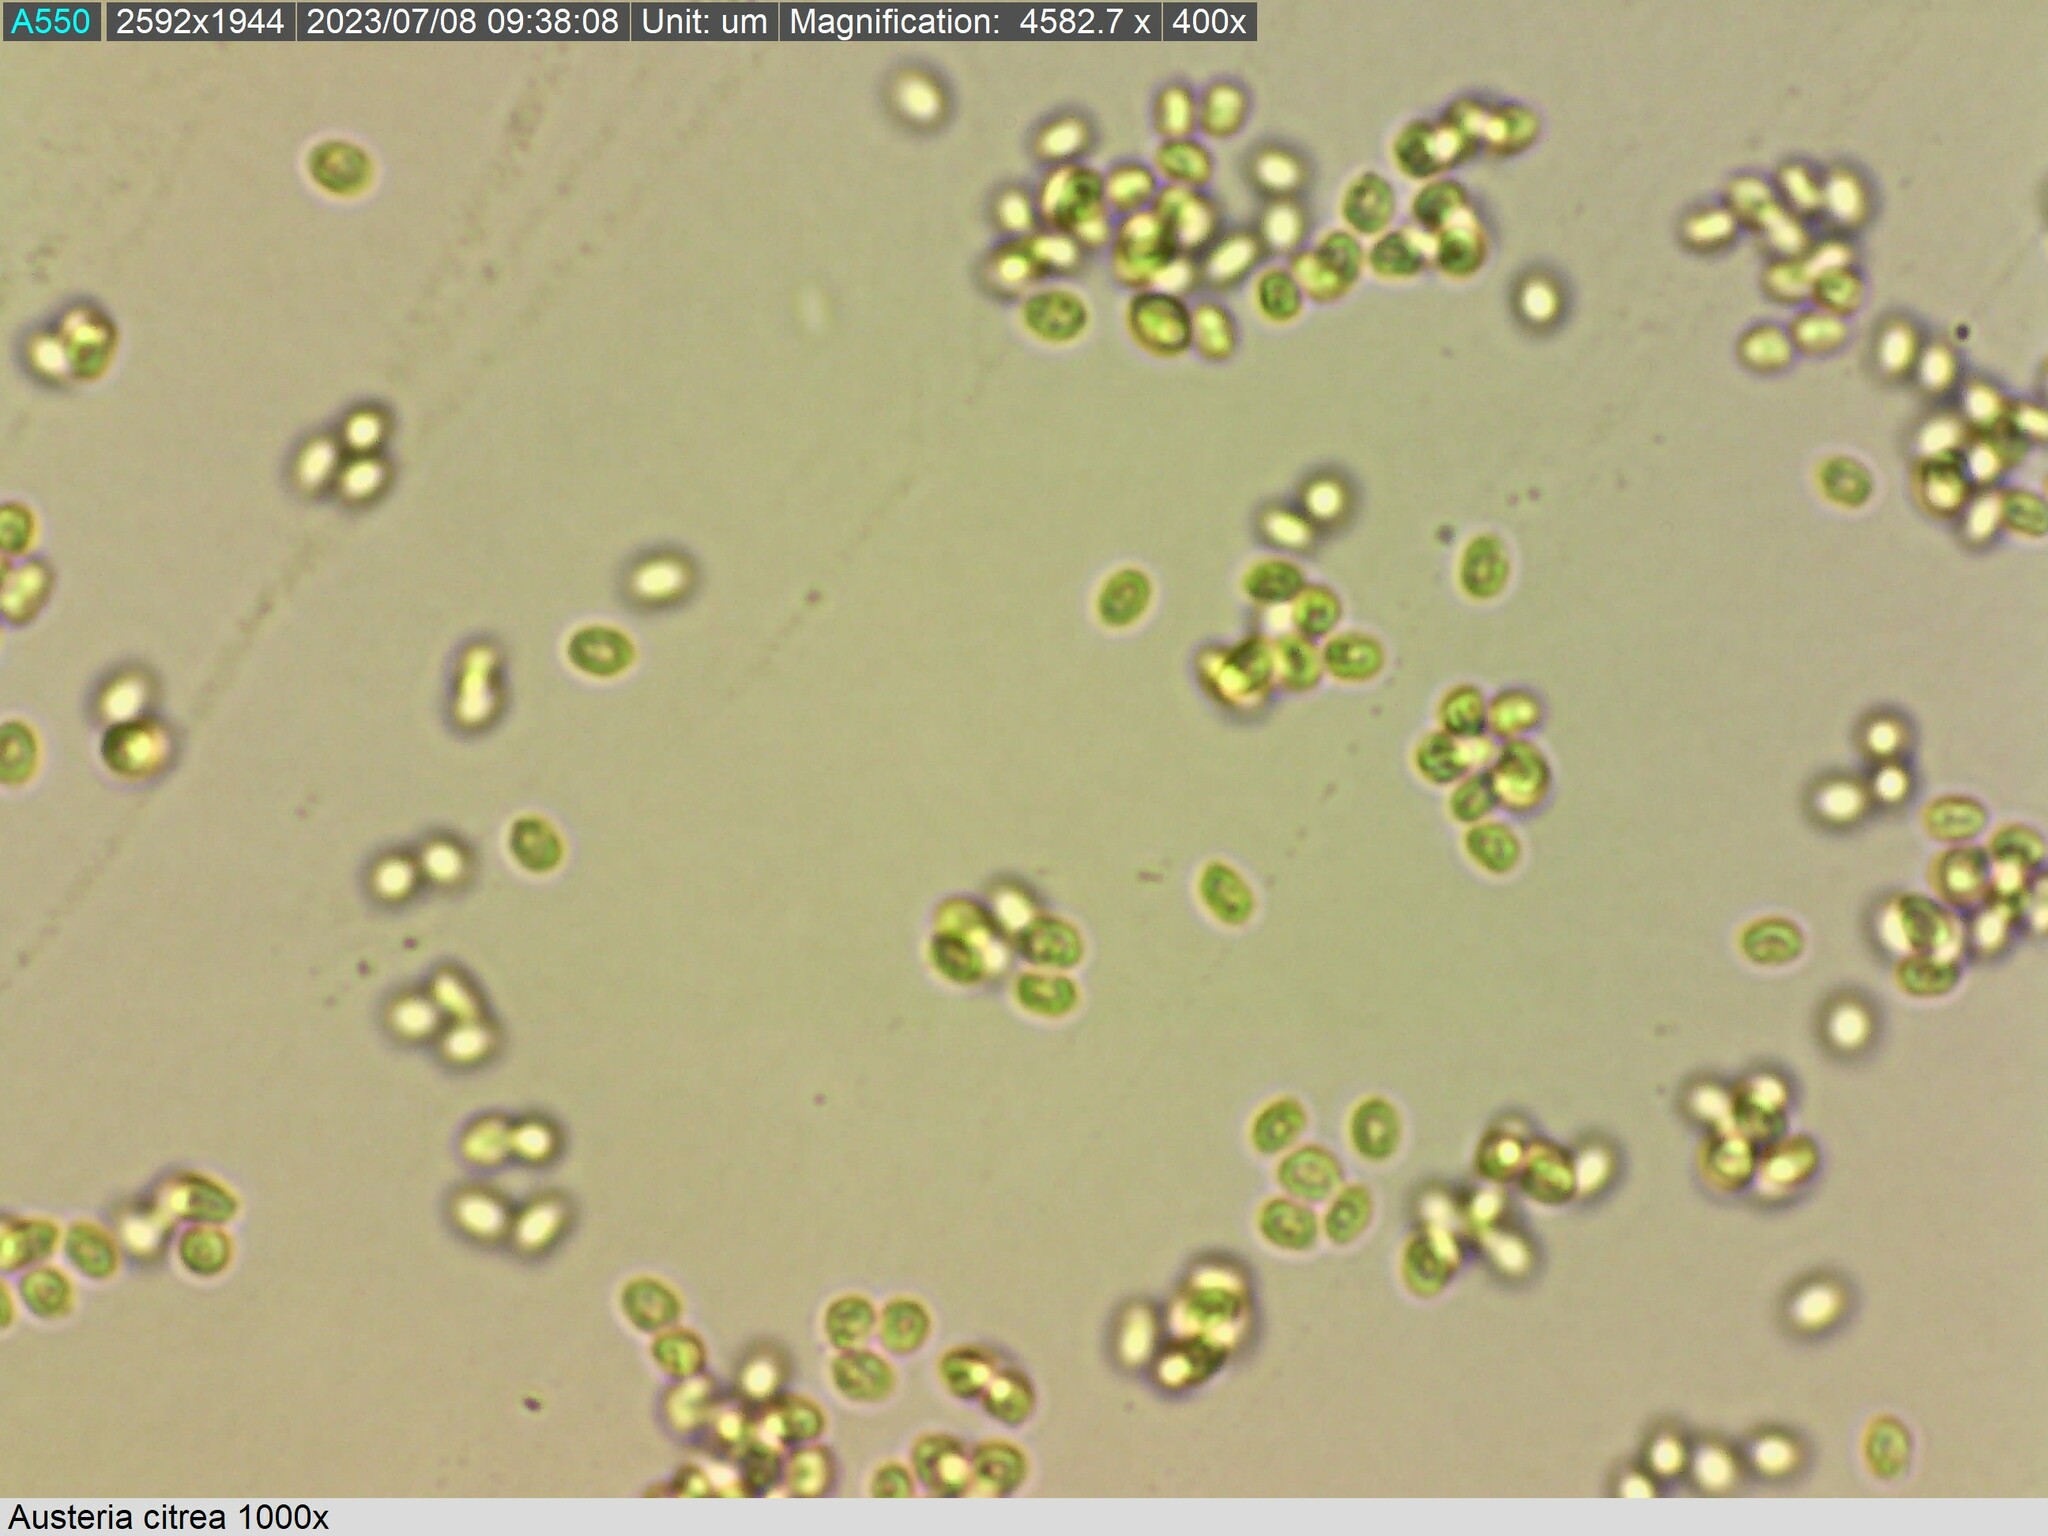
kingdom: Fungi
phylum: Basidiomycota
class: Agaricomycetes
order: Polyporales
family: Steccherinaceae
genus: Austeria
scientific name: Austeria citrea
